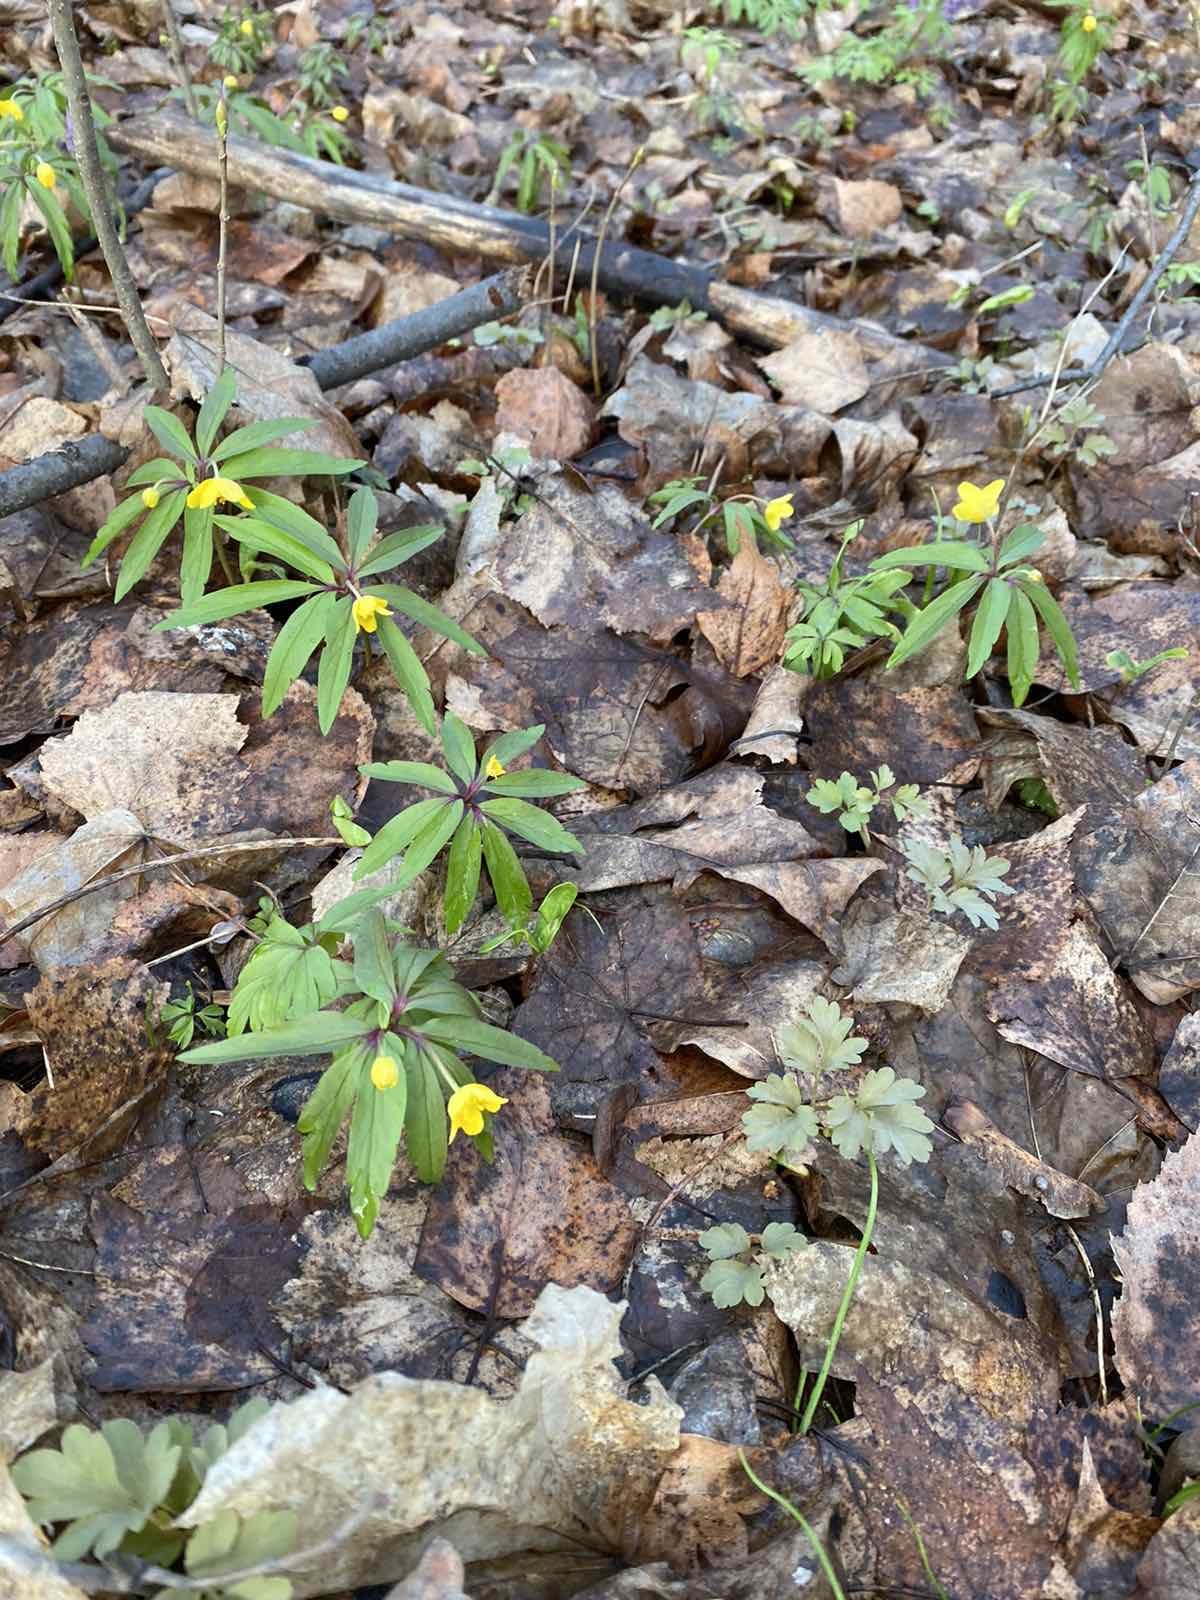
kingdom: Plantae
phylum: Tracheophyta
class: Magnoliopsida
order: Ranunculales
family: Ranunculaceae
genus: Anemone
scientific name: Anemone ranunculoides
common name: Yellow anemone
